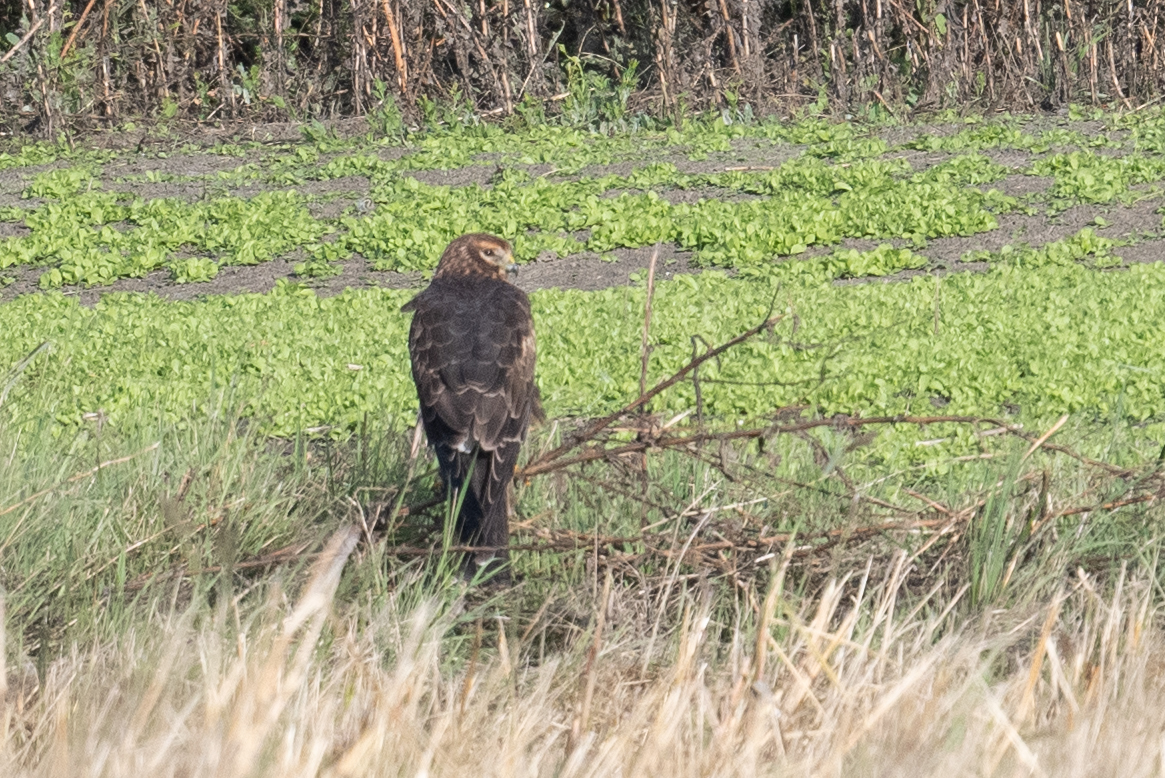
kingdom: Animalia
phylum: Chordata
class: Aves
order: Accipitriformes
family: Accipitridae
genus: Circus
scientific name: Circus cyaneus
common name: Hen harrier
